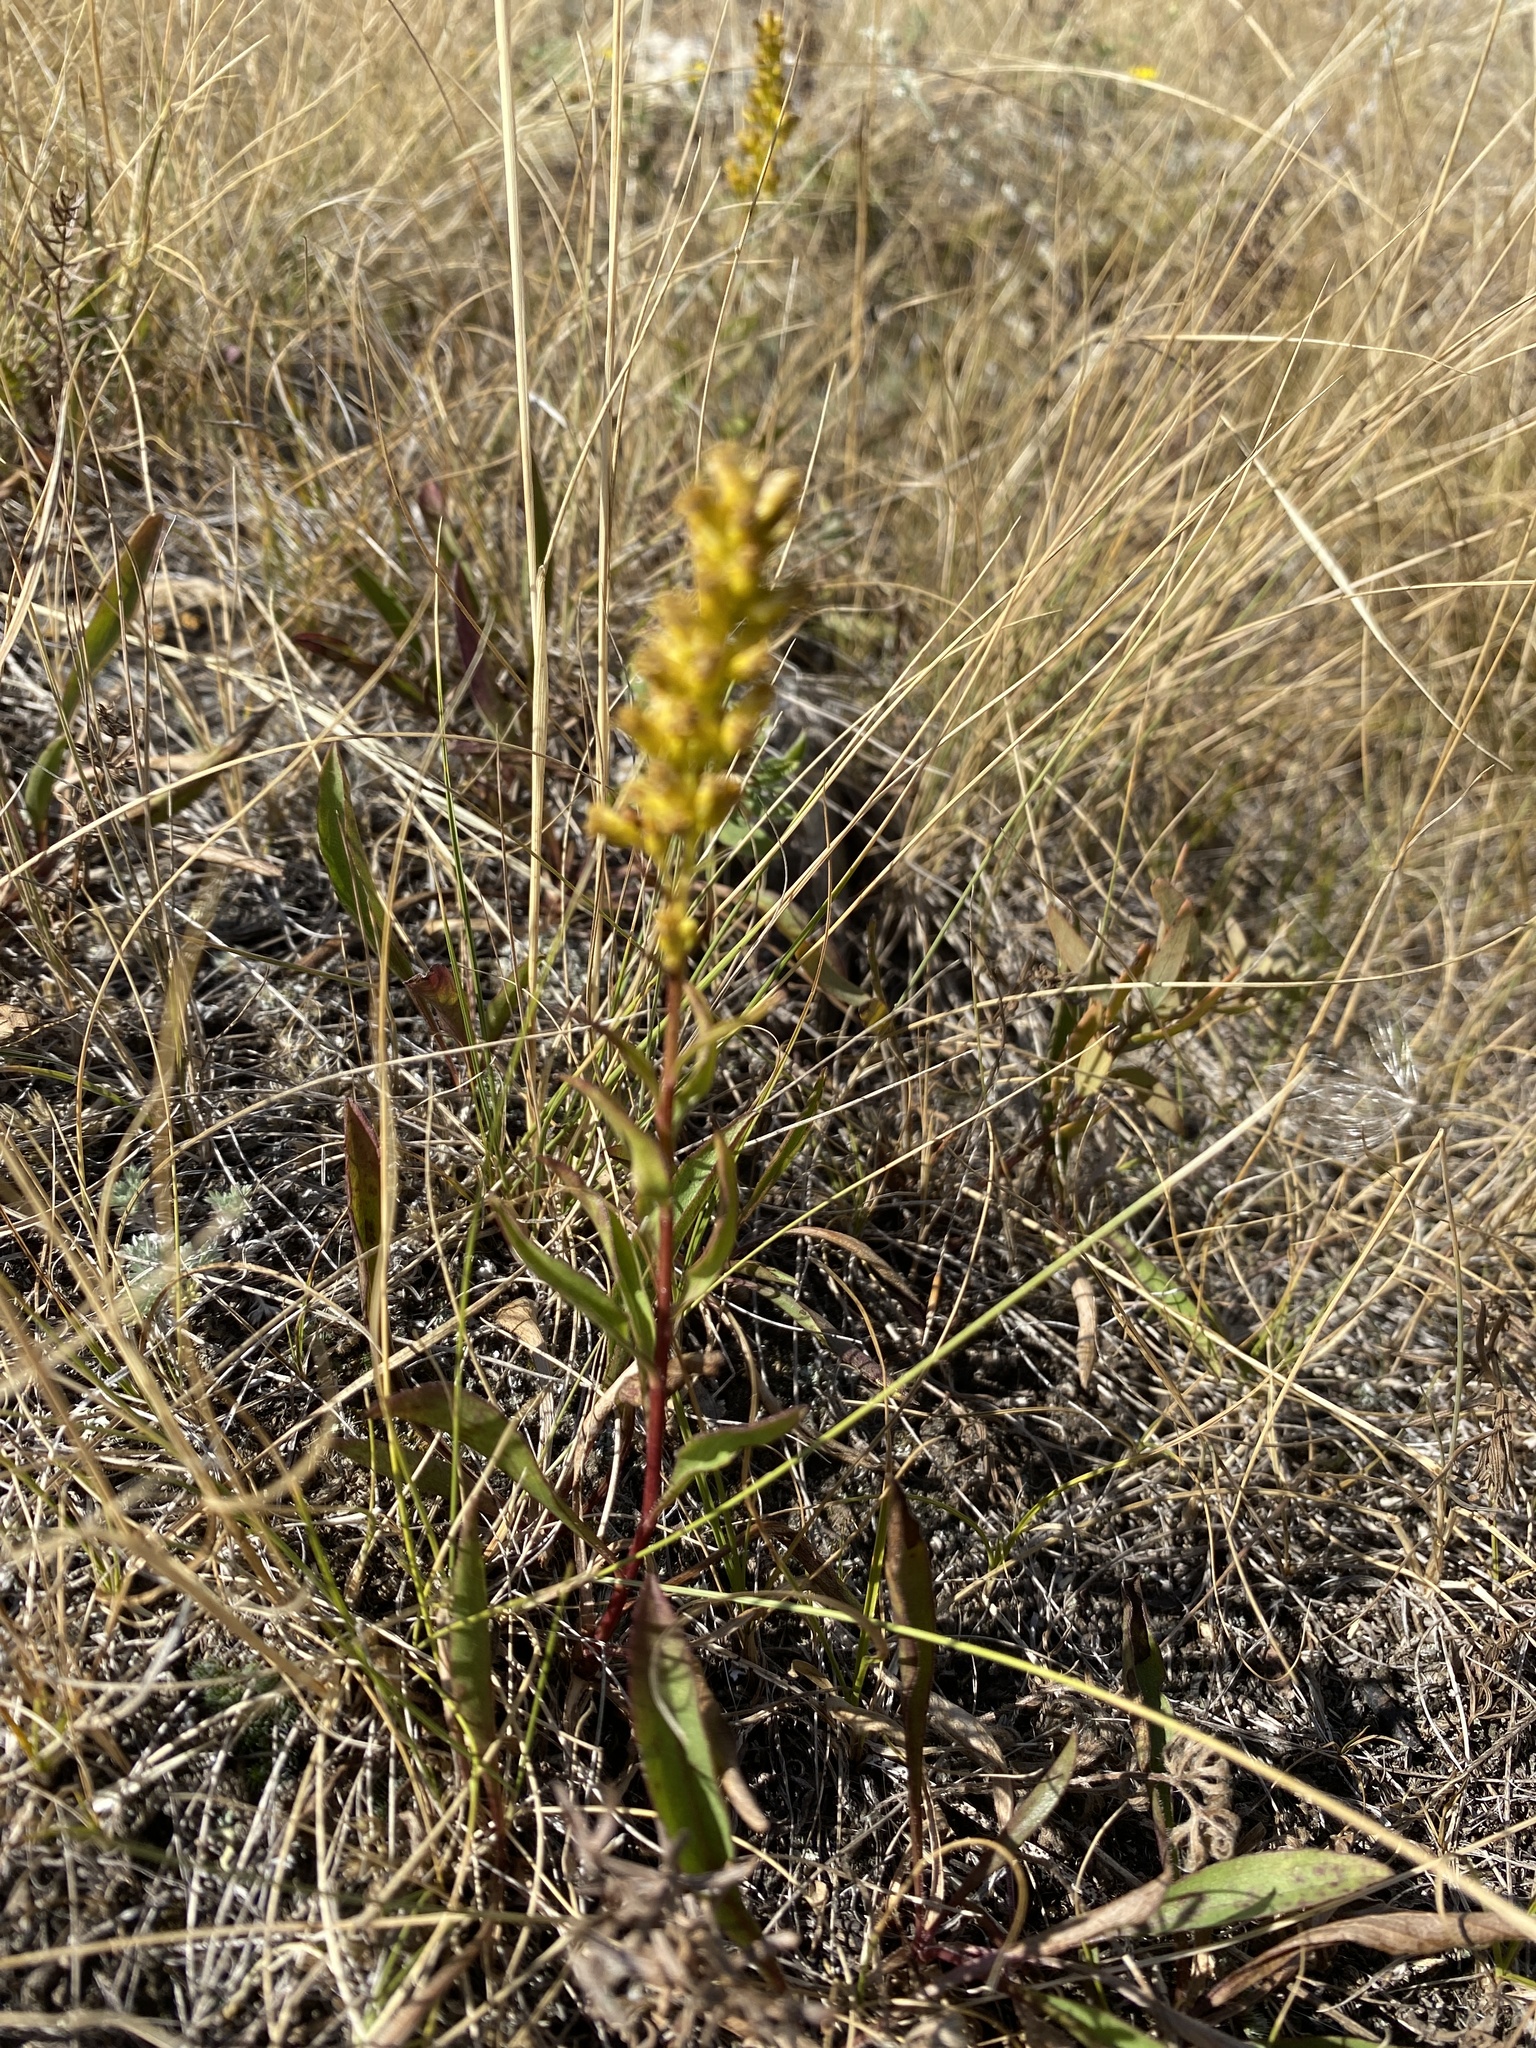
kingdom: Plantae
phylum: Tracheophyta
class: Magnoliopsida
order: Asterales
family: Asteraceae
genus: Solidago
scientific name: Solidago missouriensis
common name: Prairie goldenrod
